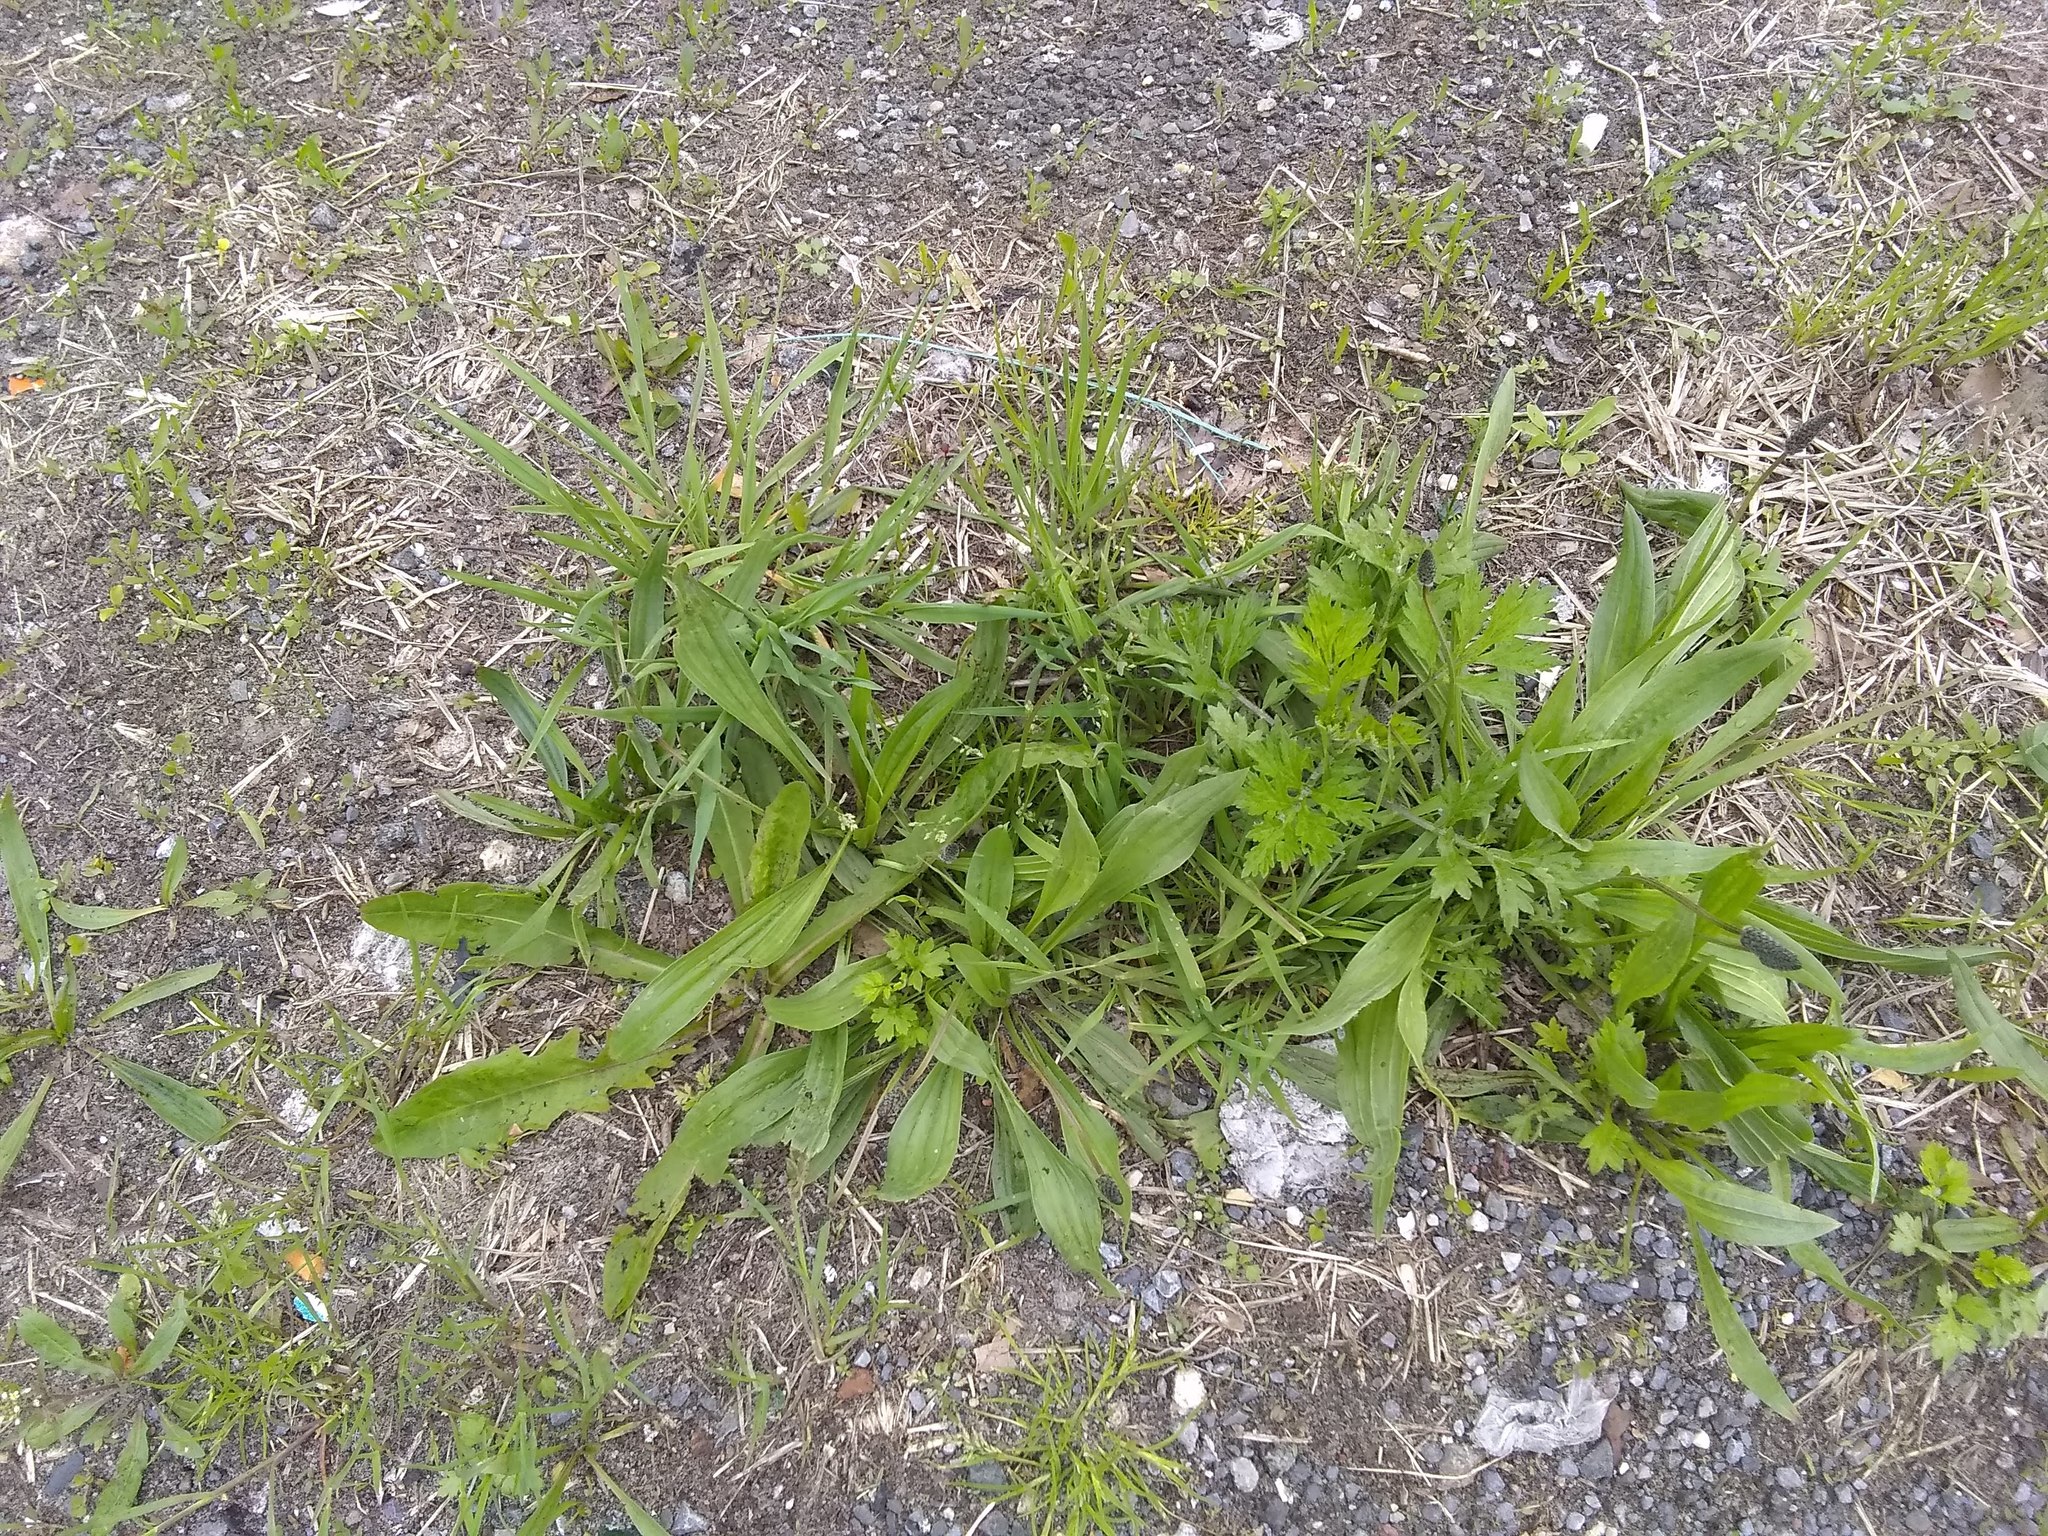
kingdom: Plantae
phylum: Tracheophyta
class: Magnoliopsida
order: Lamiales
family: Plantaginaceae
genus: Plantago
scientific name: Plantago lanceolata
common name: Ribwort plantain
